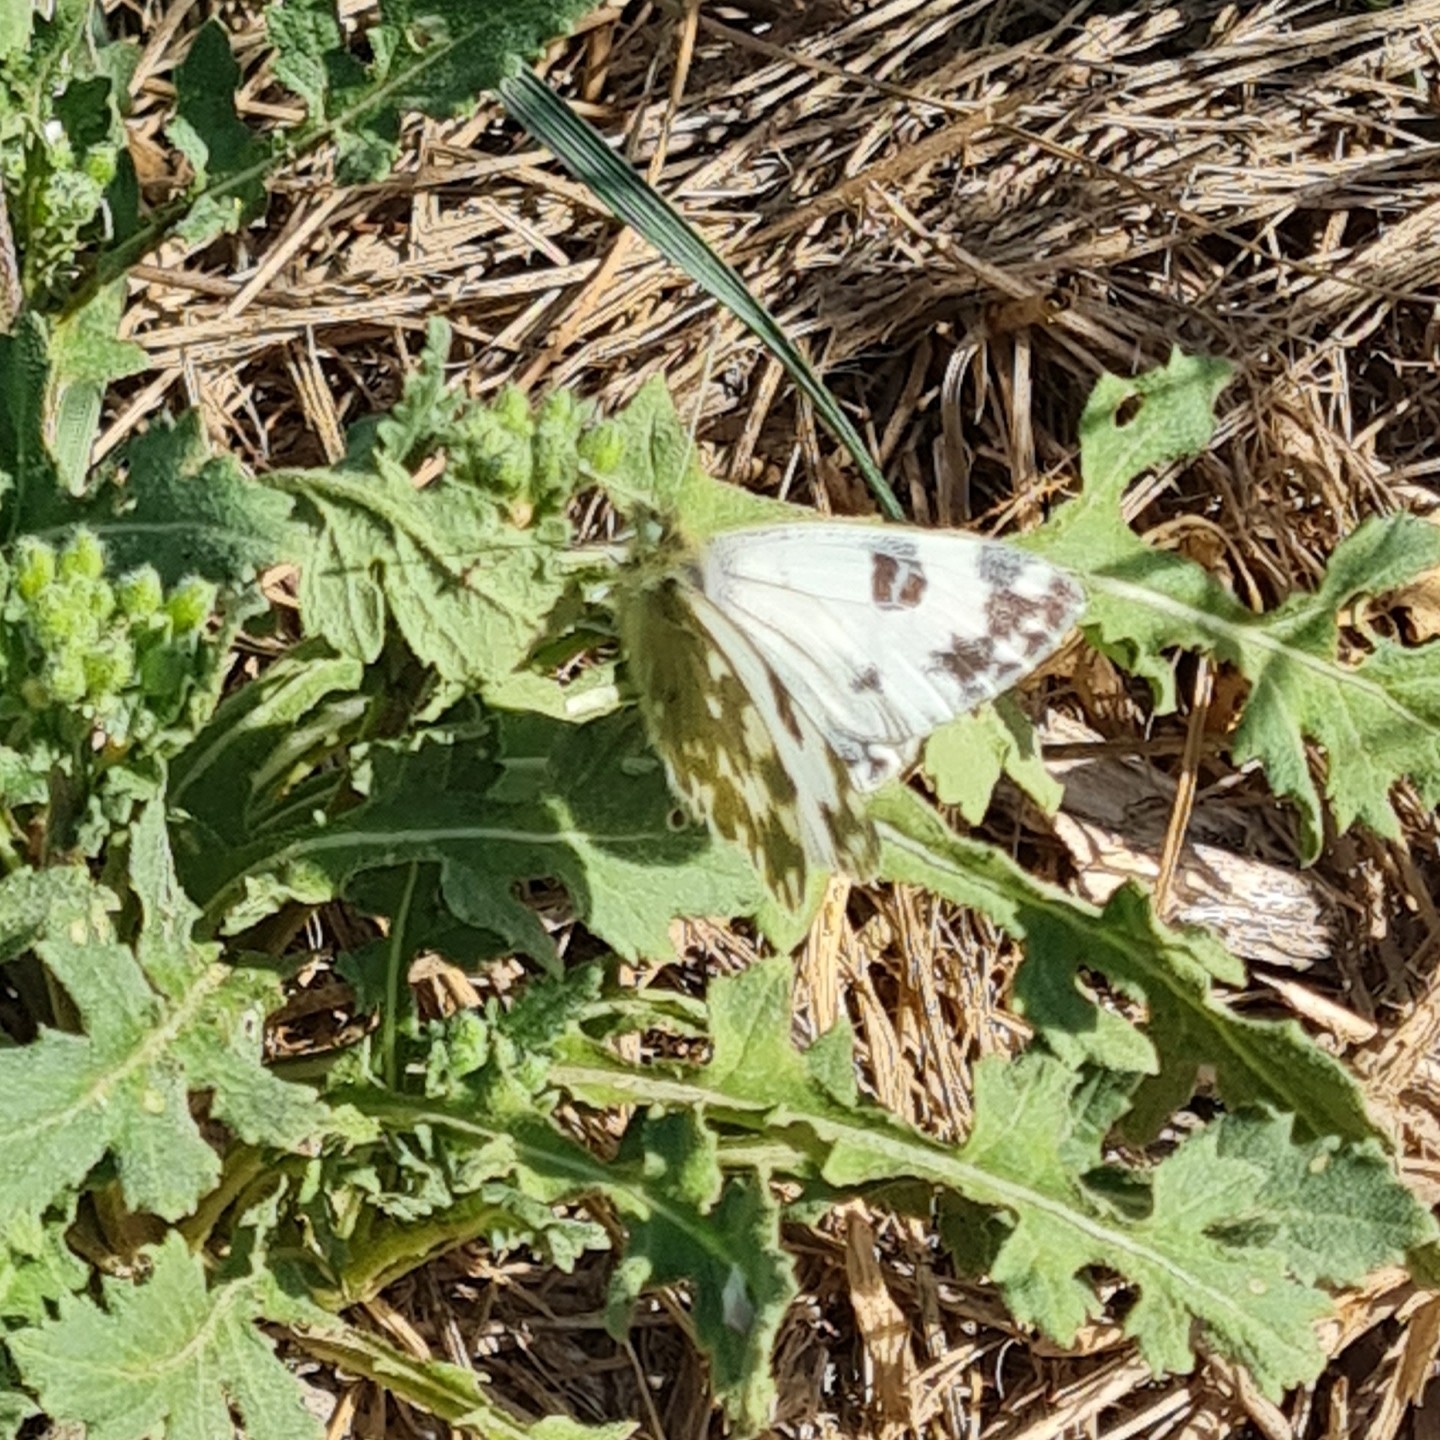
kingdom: Animalia
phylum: Arthropoda
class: Insecta
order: Lepidoptera
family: Pieridae
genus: Pontia
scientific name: Pontia daplidice
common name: Bath white
